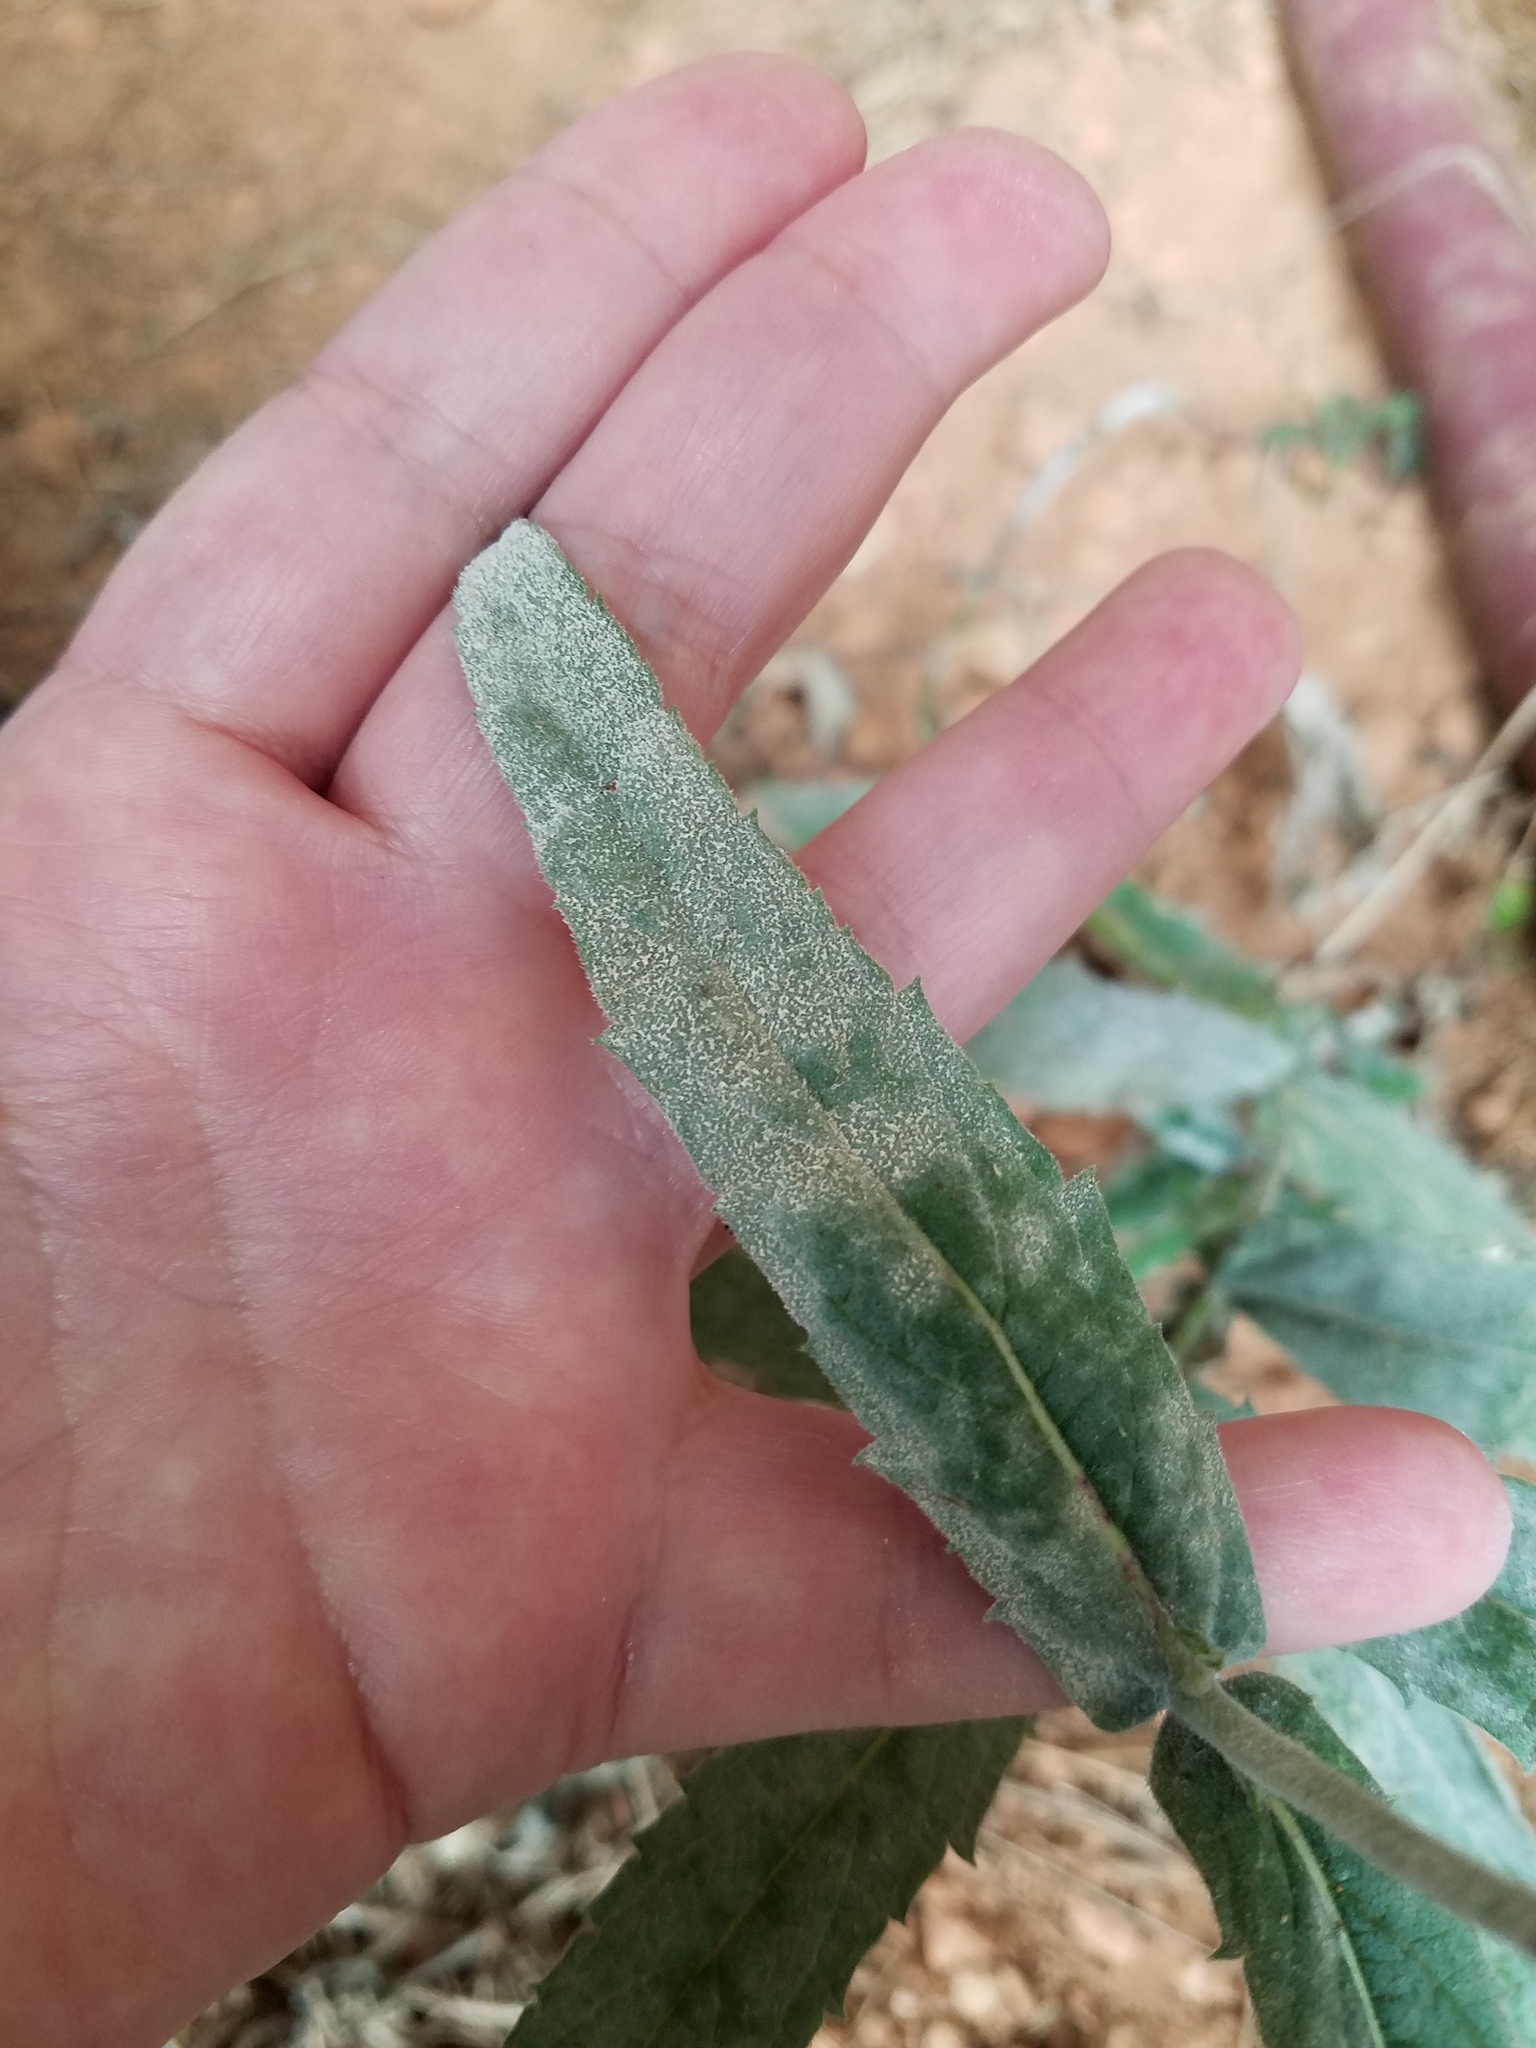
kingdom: Plantae
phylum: Tracheophyta
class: Magnoliopsida
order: Lamiales
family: Verbenaceae
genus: Verbena
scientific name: Verbena rigida
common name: Slender vervain
